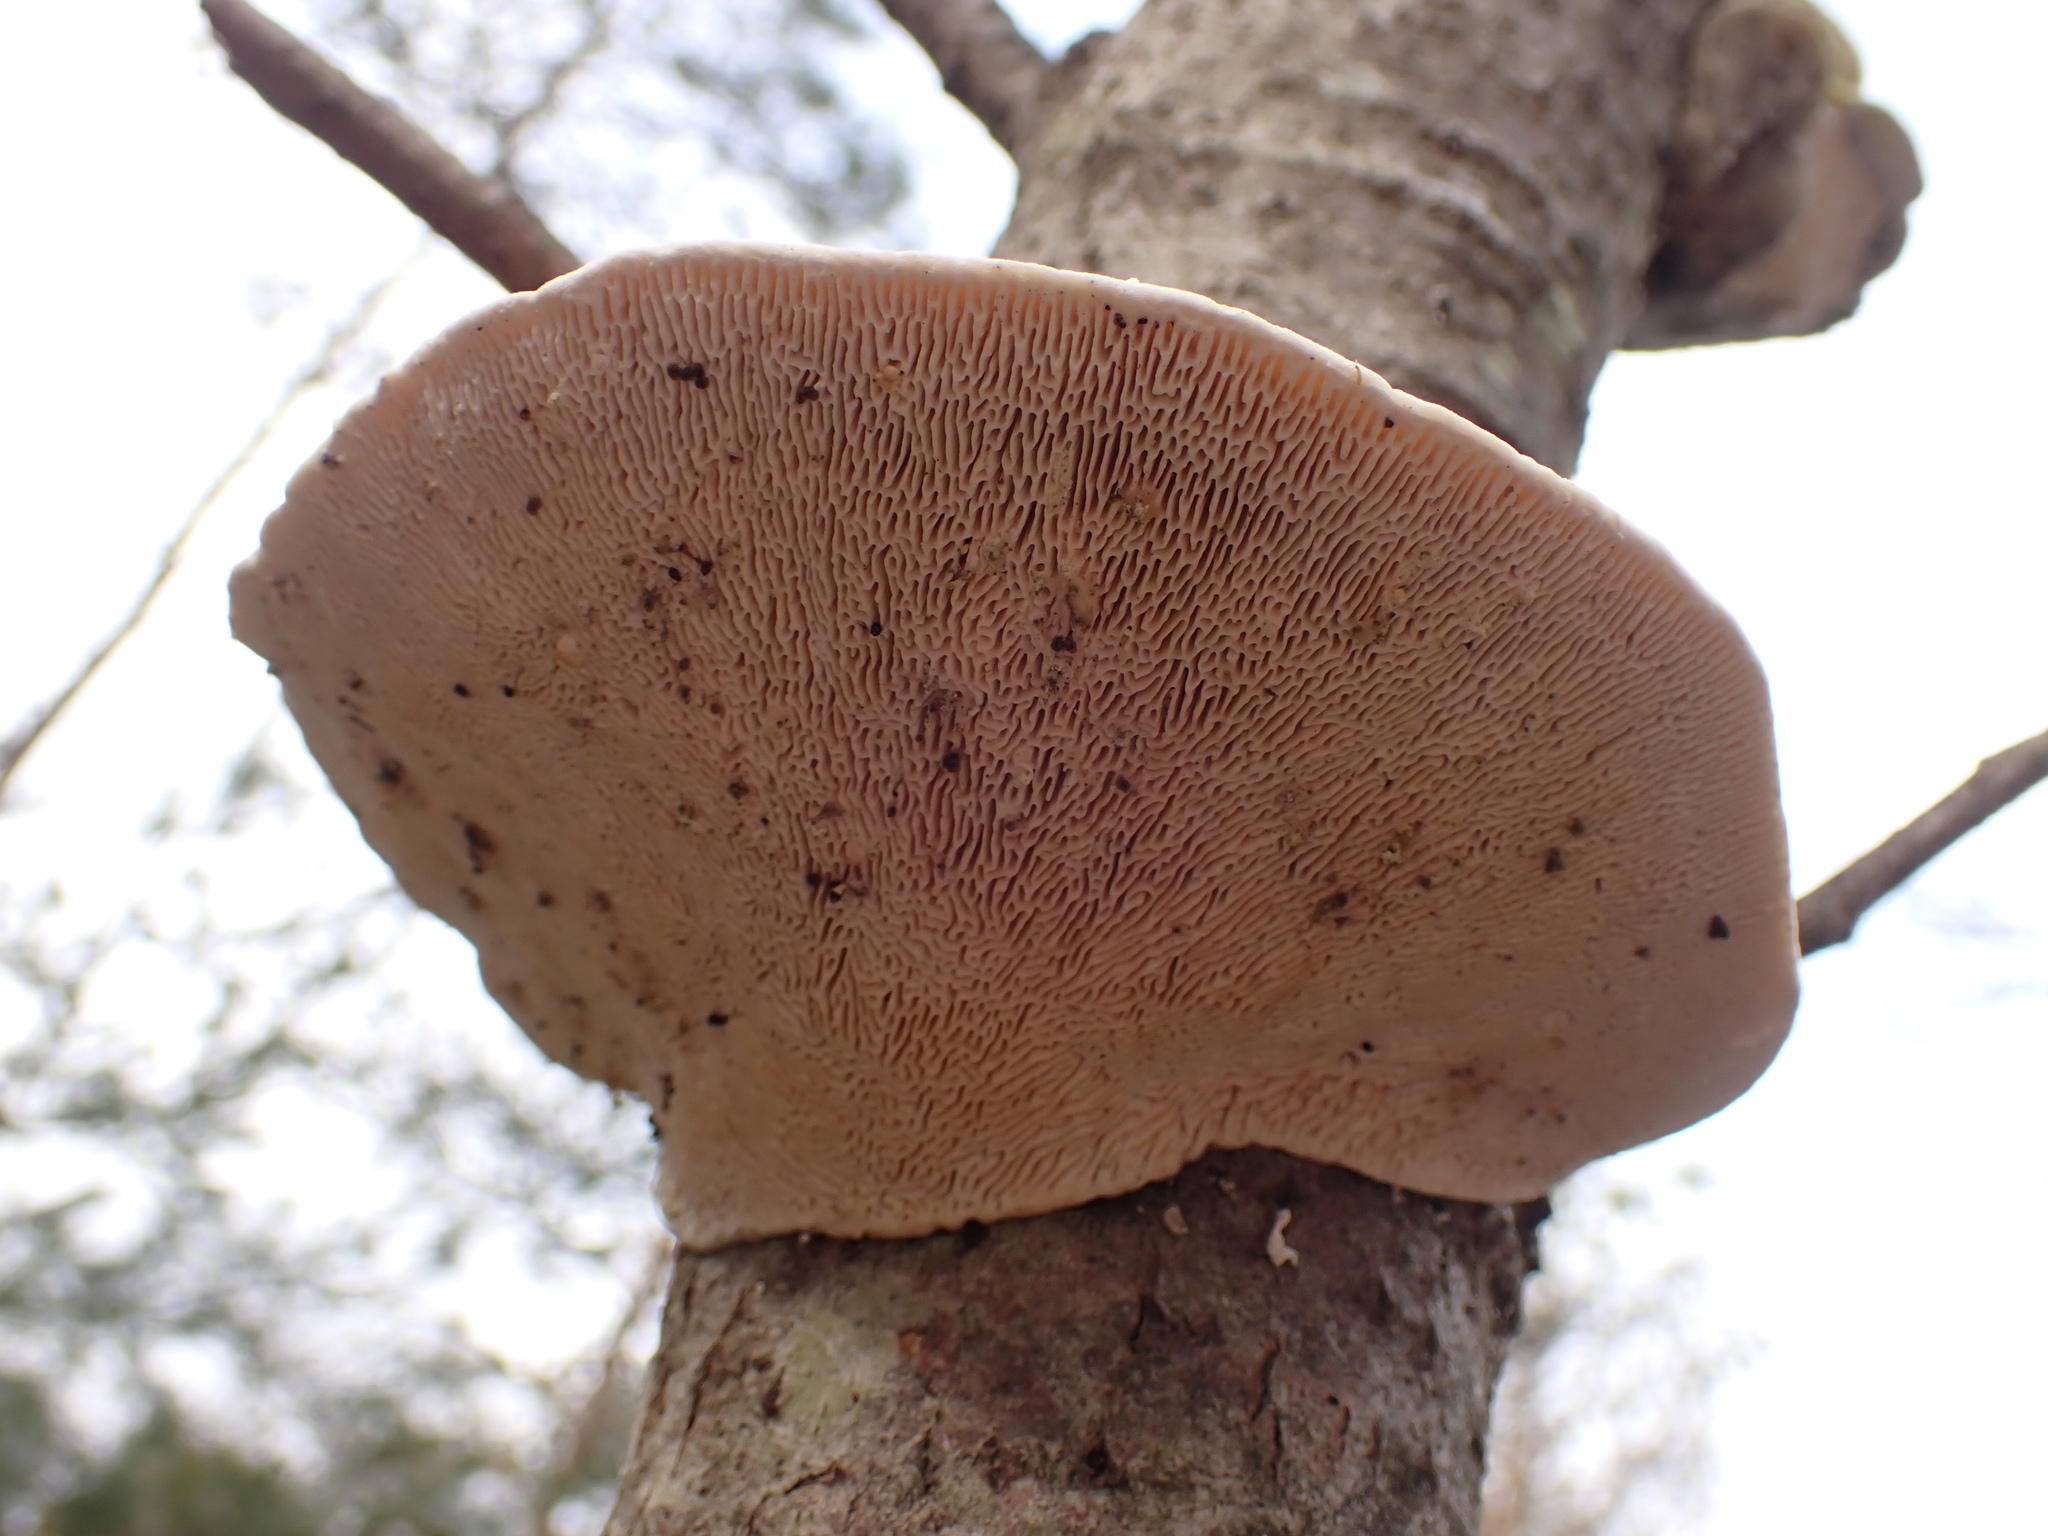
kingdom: Fungi
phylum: Basidiomycota
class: Agaricomycetes
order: Polyporales
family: Polyporaceae
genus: Trametes
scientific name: Trametes gibbosa
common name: Lumpy bracket
